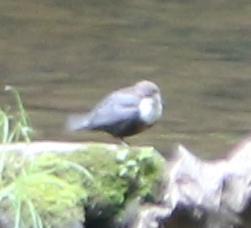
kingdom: Animalia
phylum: Chordata
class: Aves
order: Passeriformes
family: Cinclidae
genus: Cinclus
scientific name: Cinclus cinclus
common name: White-throated dipper
